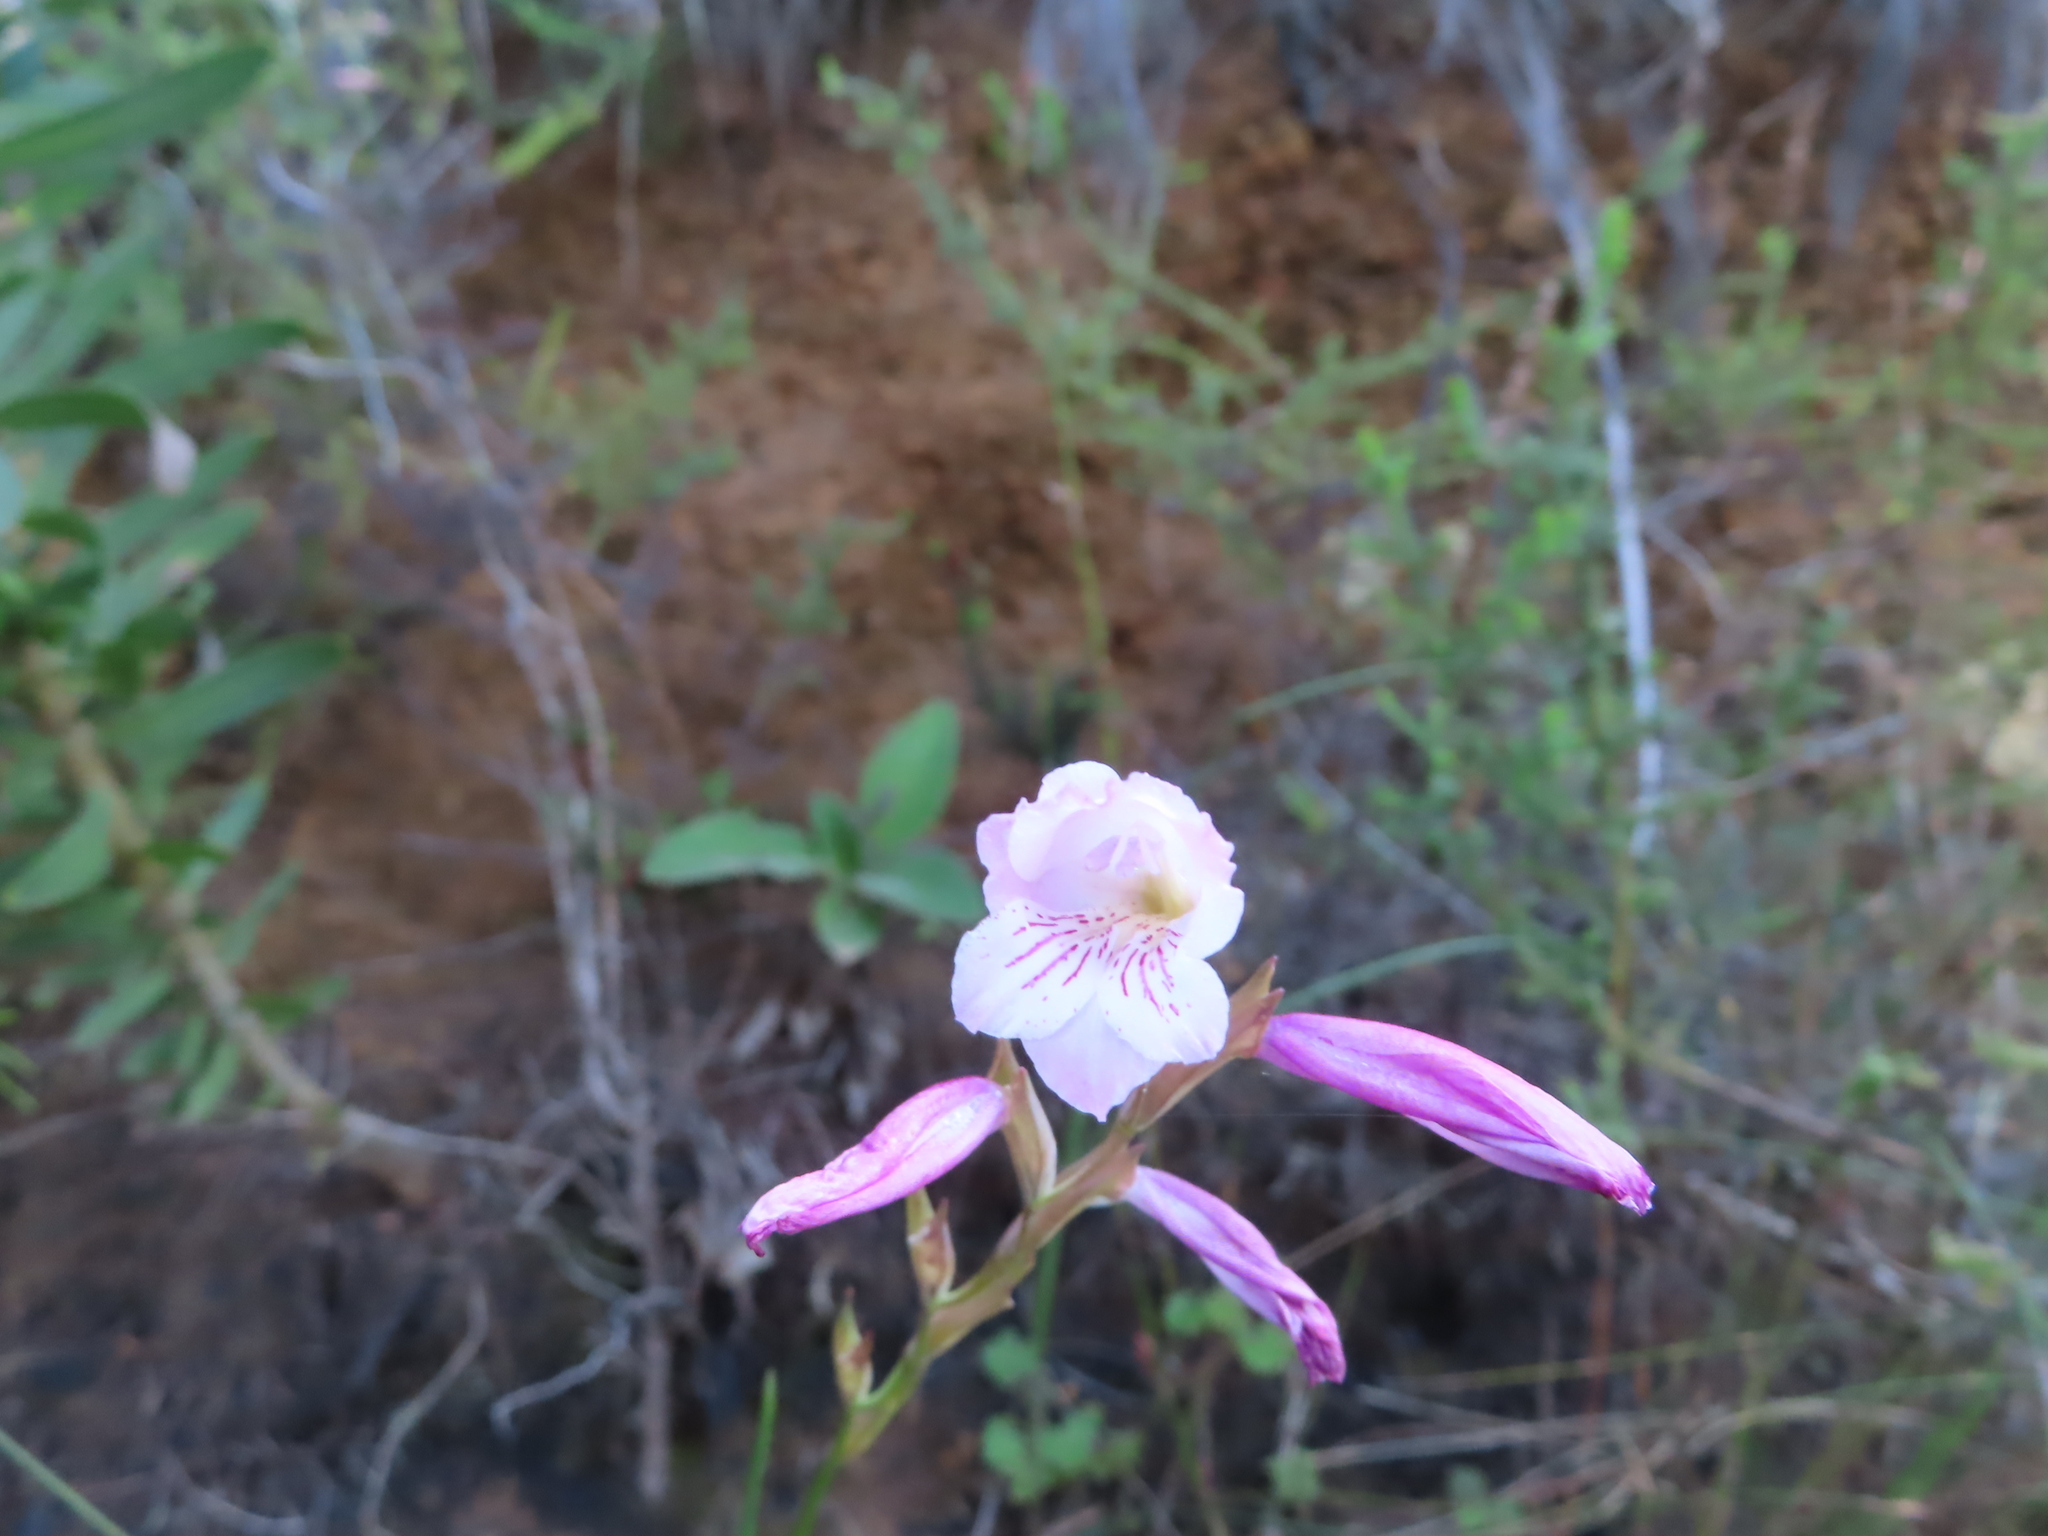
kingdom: Plantae
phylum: Tracheophyta
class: Liliopsida
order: Asparagales
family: Iridaceae
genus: Gladiolus
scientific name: Gladiolus hirsutus
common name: Small pink afrikaner
